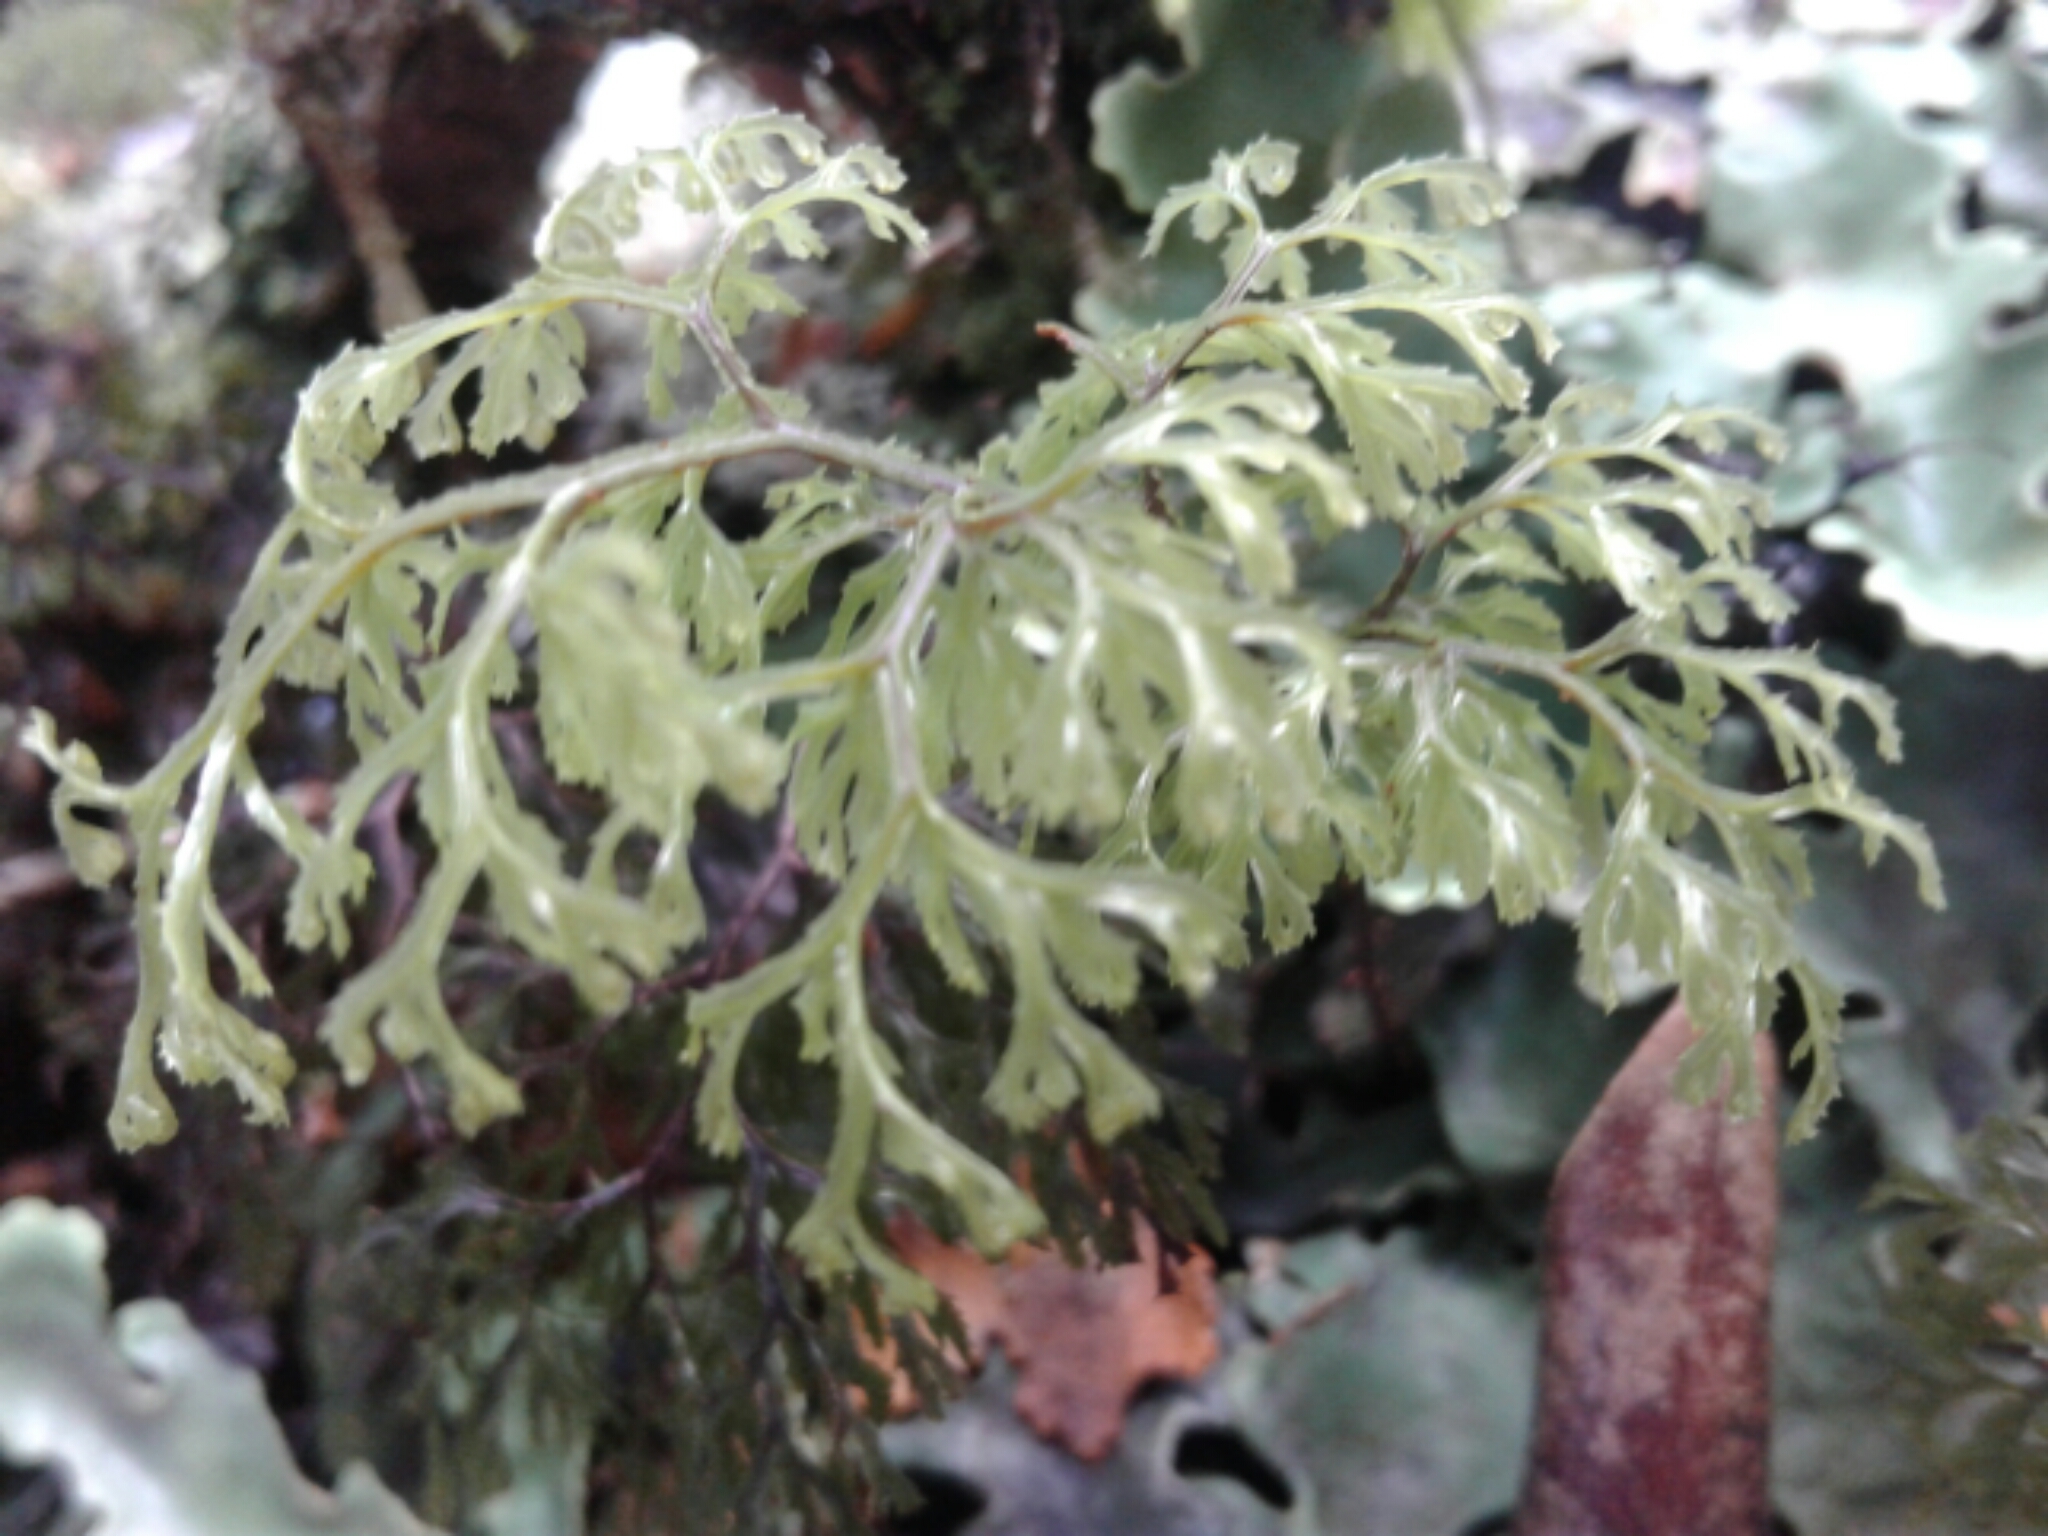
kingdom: Plantae
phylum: Tracheophyta
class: Polypodiopsida
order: Hymenophyllales
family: Hymenophyllaceae
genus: Hymenophyllum
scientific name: Hymenophyllum
